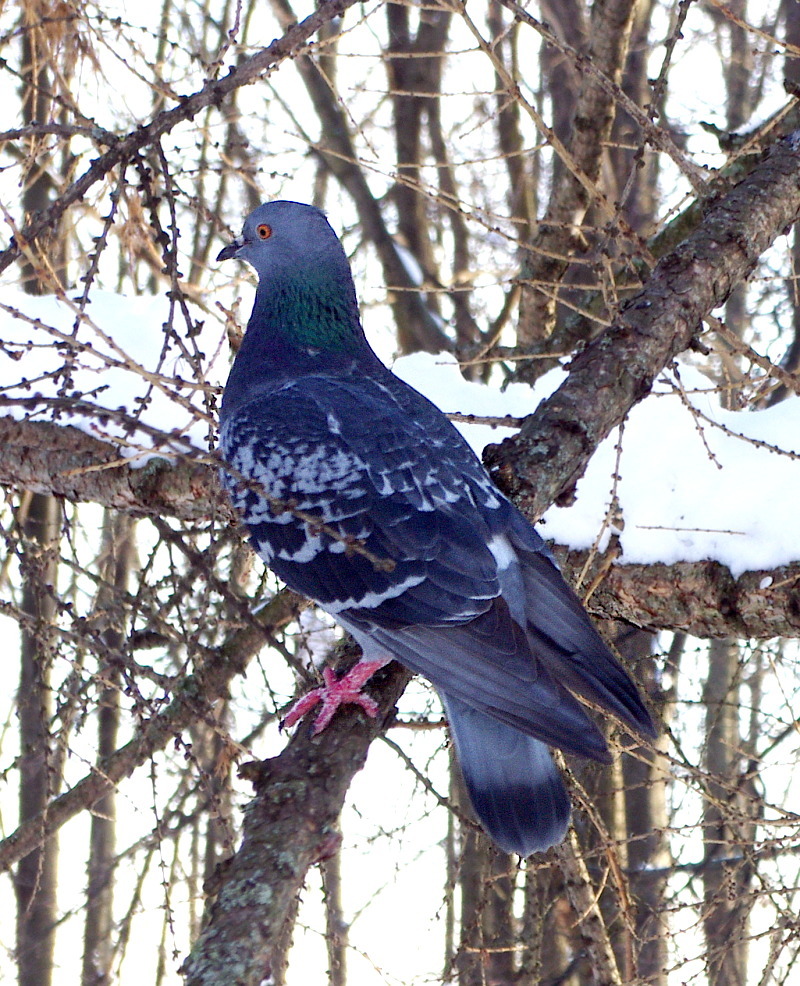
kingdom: Animalia
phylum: Chordata
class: Aves
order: Columbiformes
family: Columbidae
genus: Columba
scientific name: Columba livia
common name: Rock pigeon
